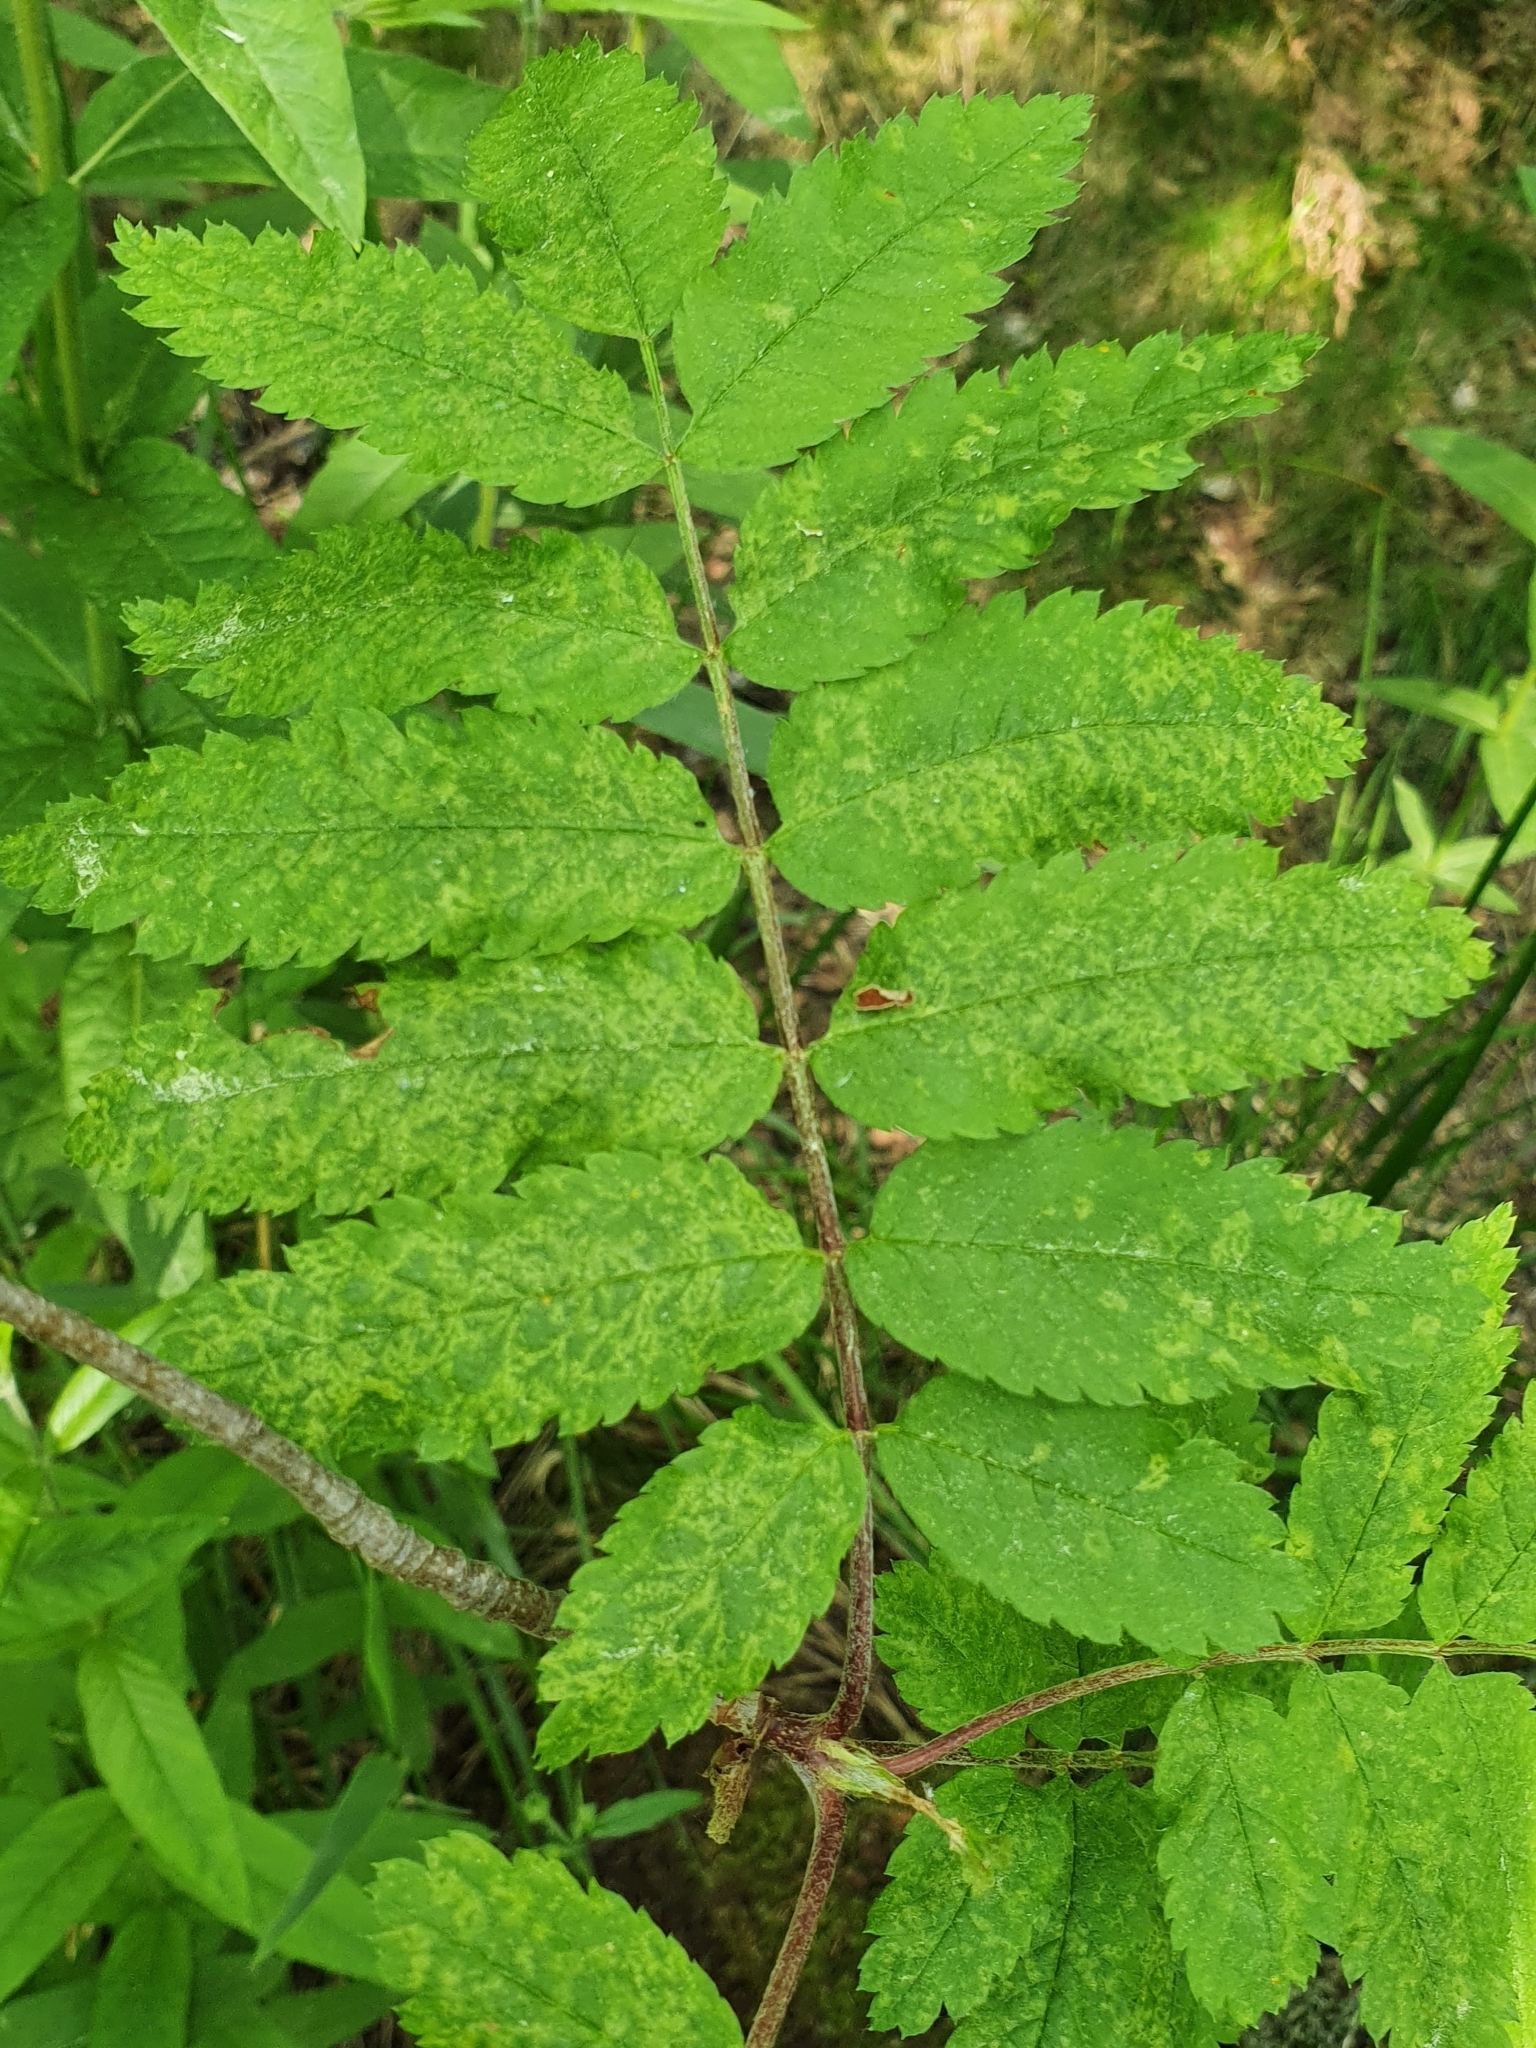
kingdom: Viruses
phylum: Negarnaviricota
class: Ellioviricetes
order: Bunyavirales
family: Fimoviridae
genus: Emaravirus
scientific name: Emaravirus sorbi
